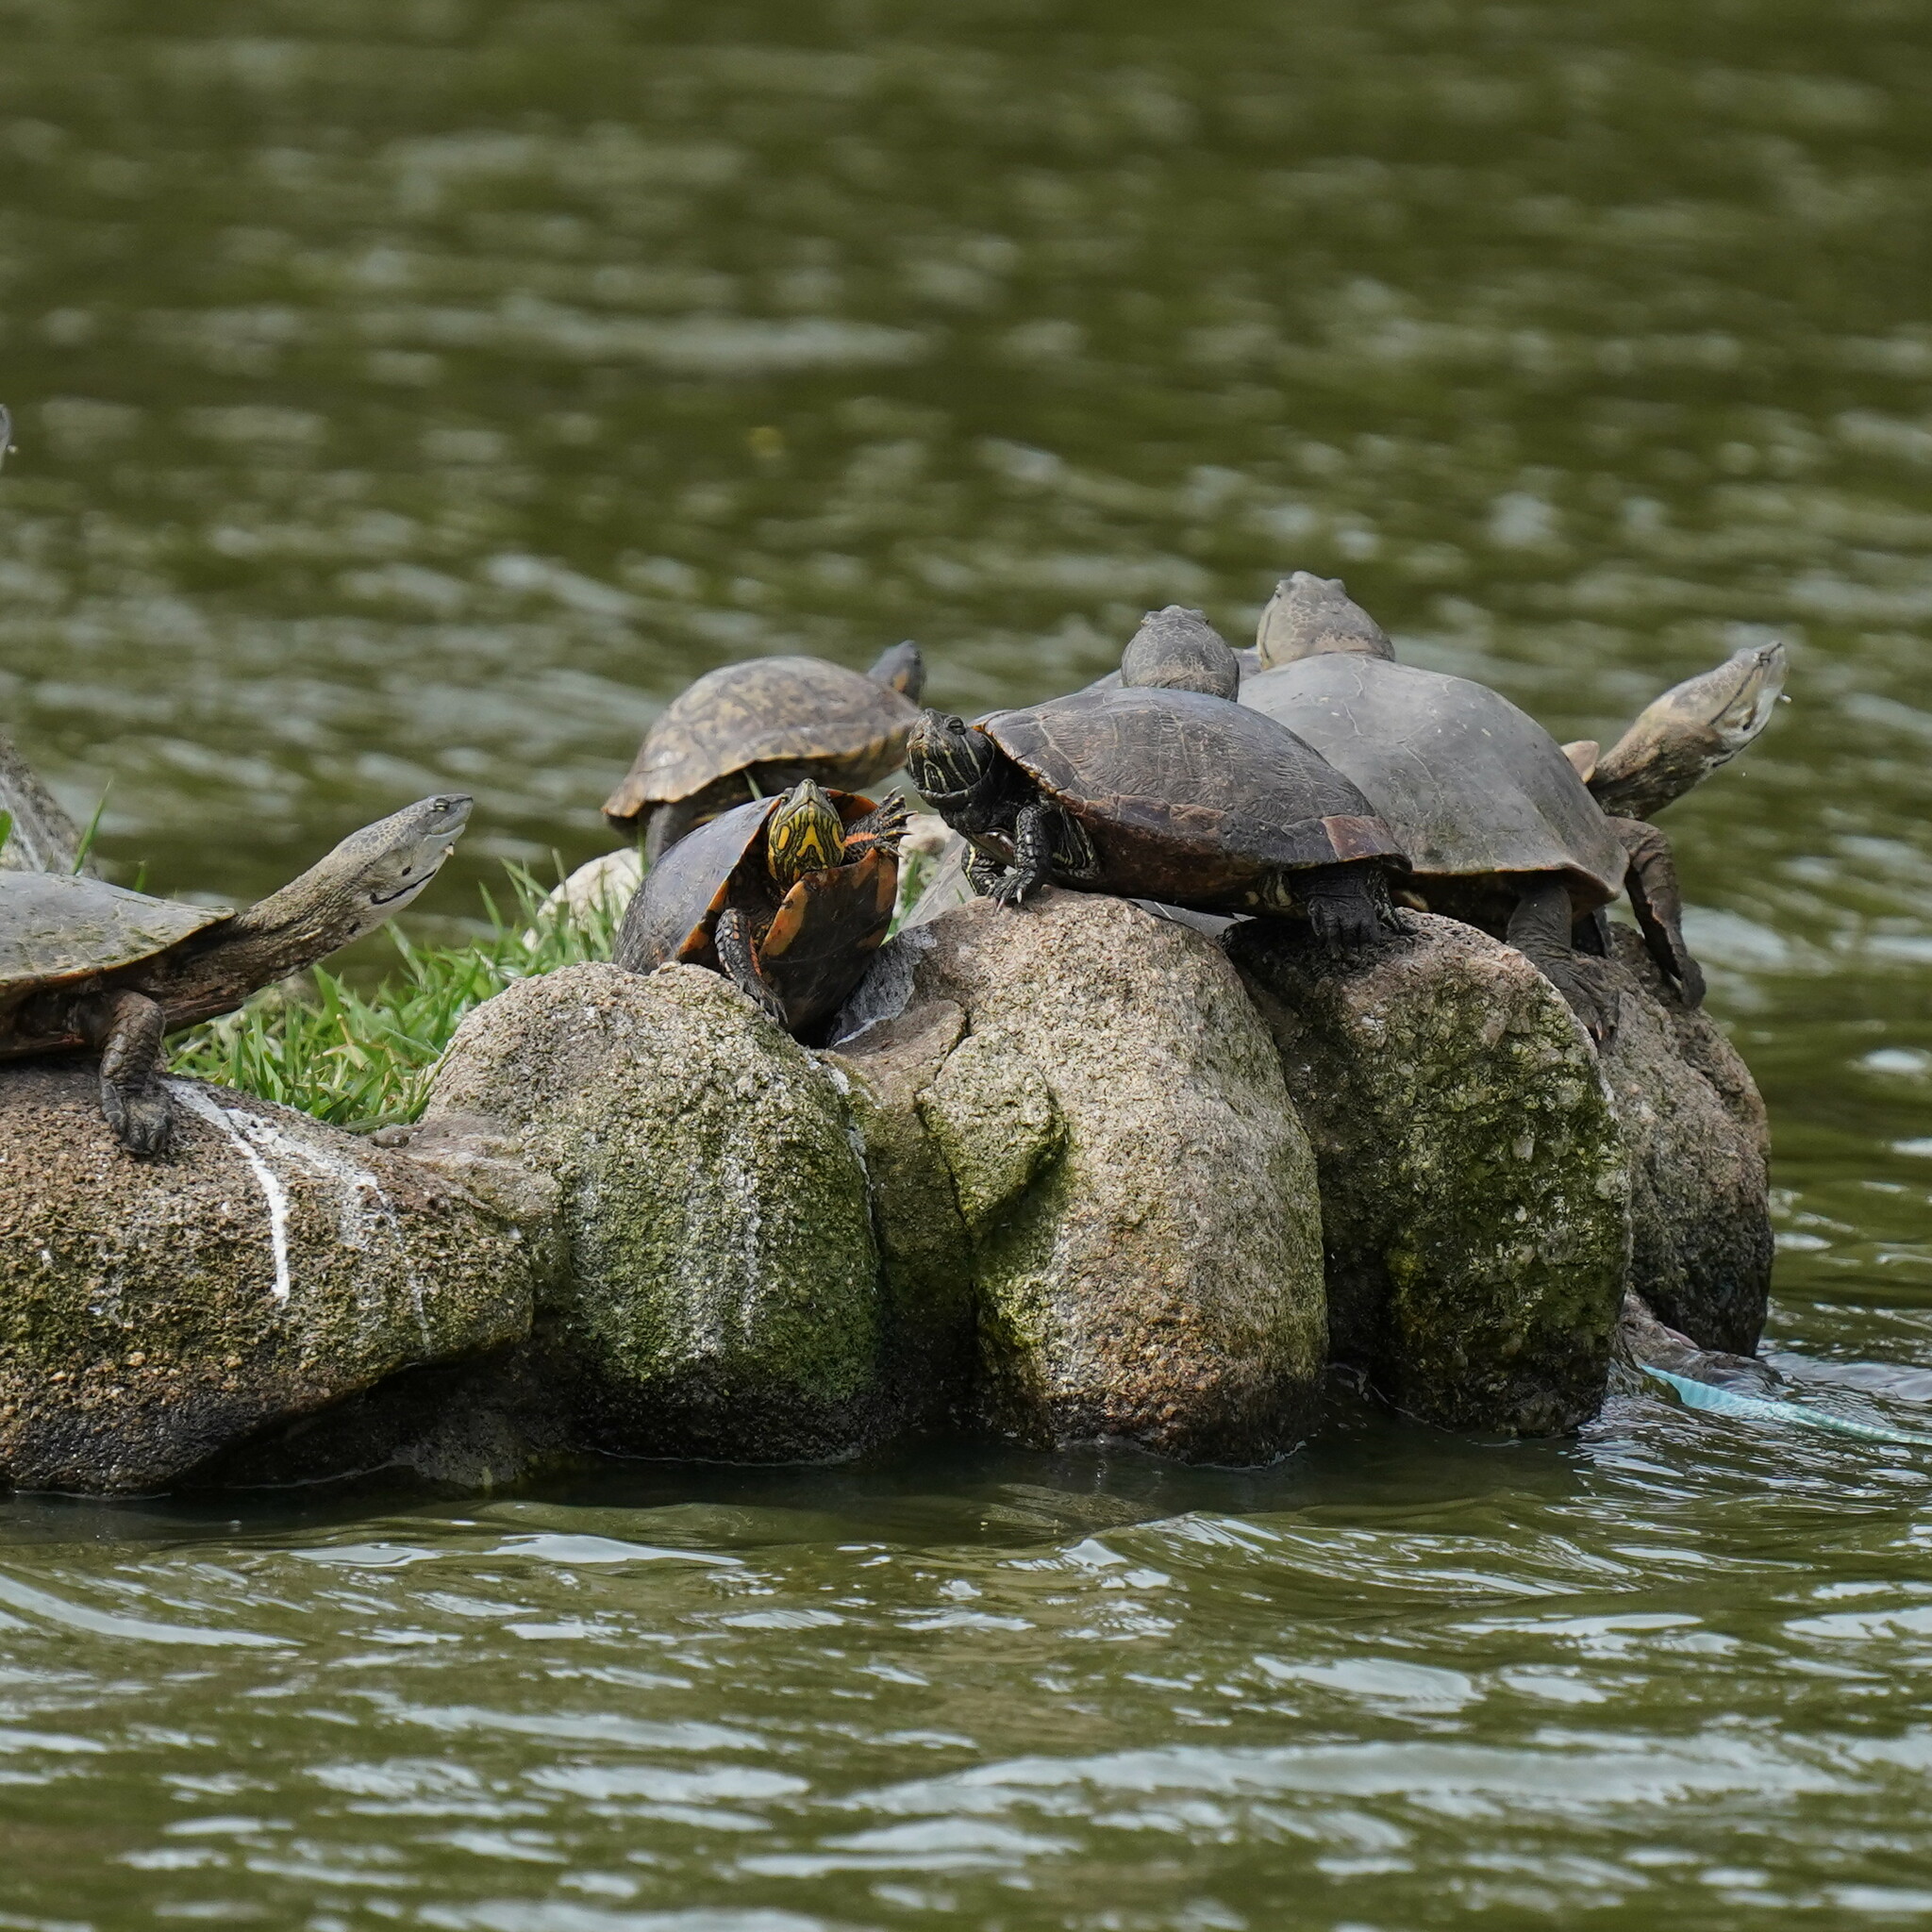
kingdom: Animalia
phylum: Chordata
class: Testudines
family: Chelidae
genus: Phrynops
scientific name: Phrynops hilarii
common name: Side-necked turtle of saint hillaire
